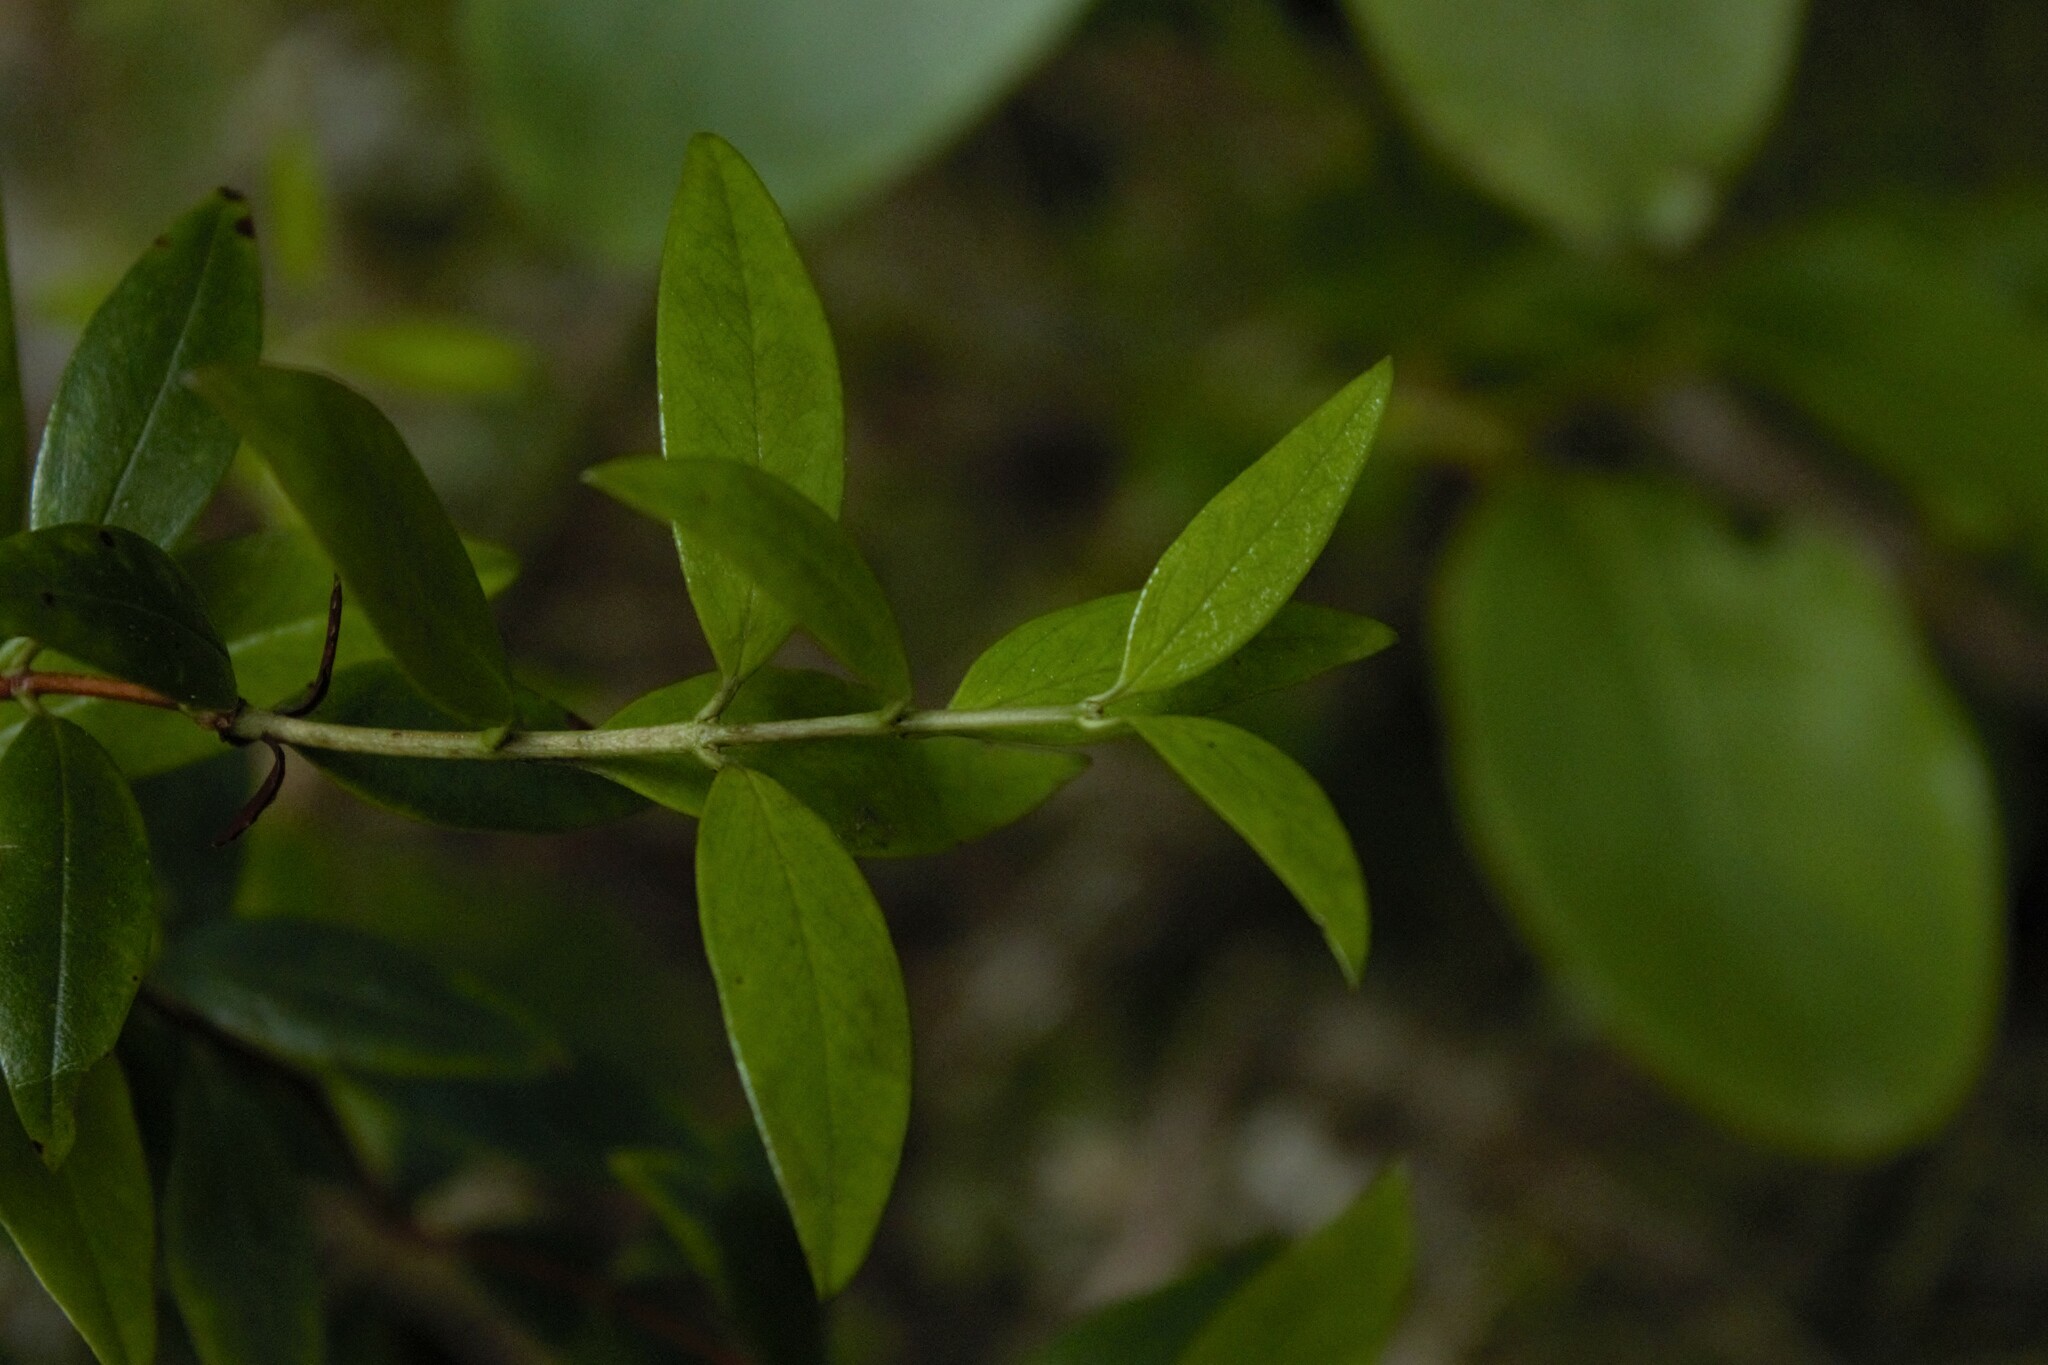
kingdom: Plantae
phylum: Tracheophyta
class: Magnoliopsida
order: Ericales
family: Ericaceae
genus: Gaultheria
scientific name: Gaultheria rupestris
